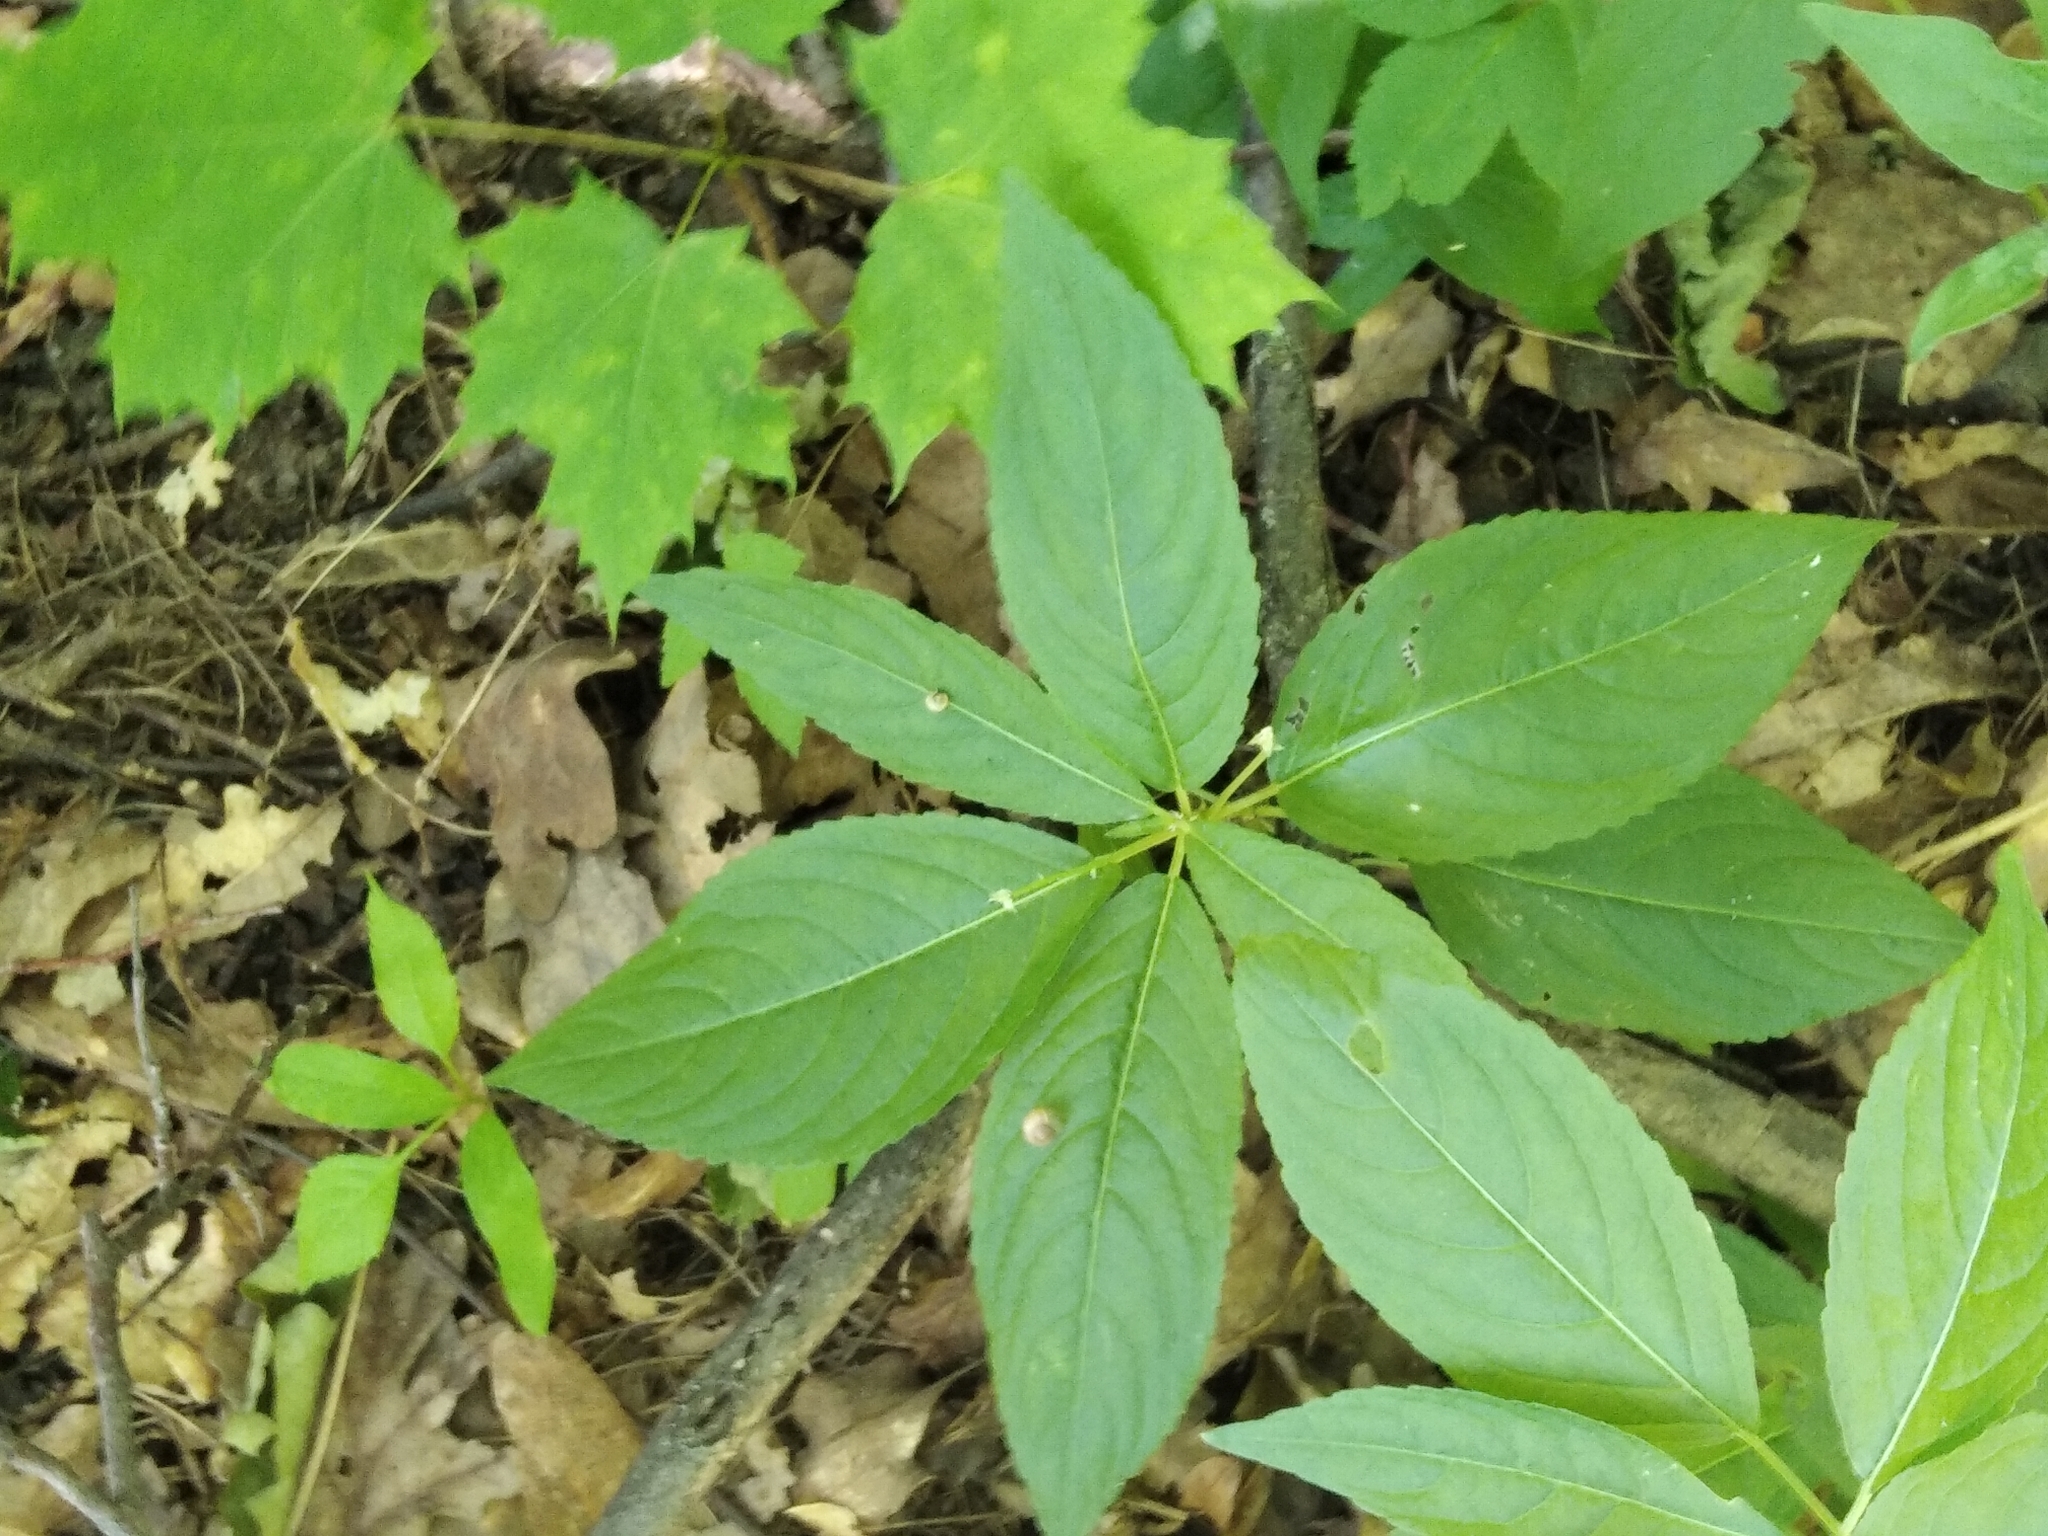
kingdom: Plantae
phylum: Tracheophyta
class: Magnoliopsida
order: Malpighiales
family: Euphorbiaceae
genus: Mercurialis
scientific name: Mercurialis perennis
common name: Dog mercury
